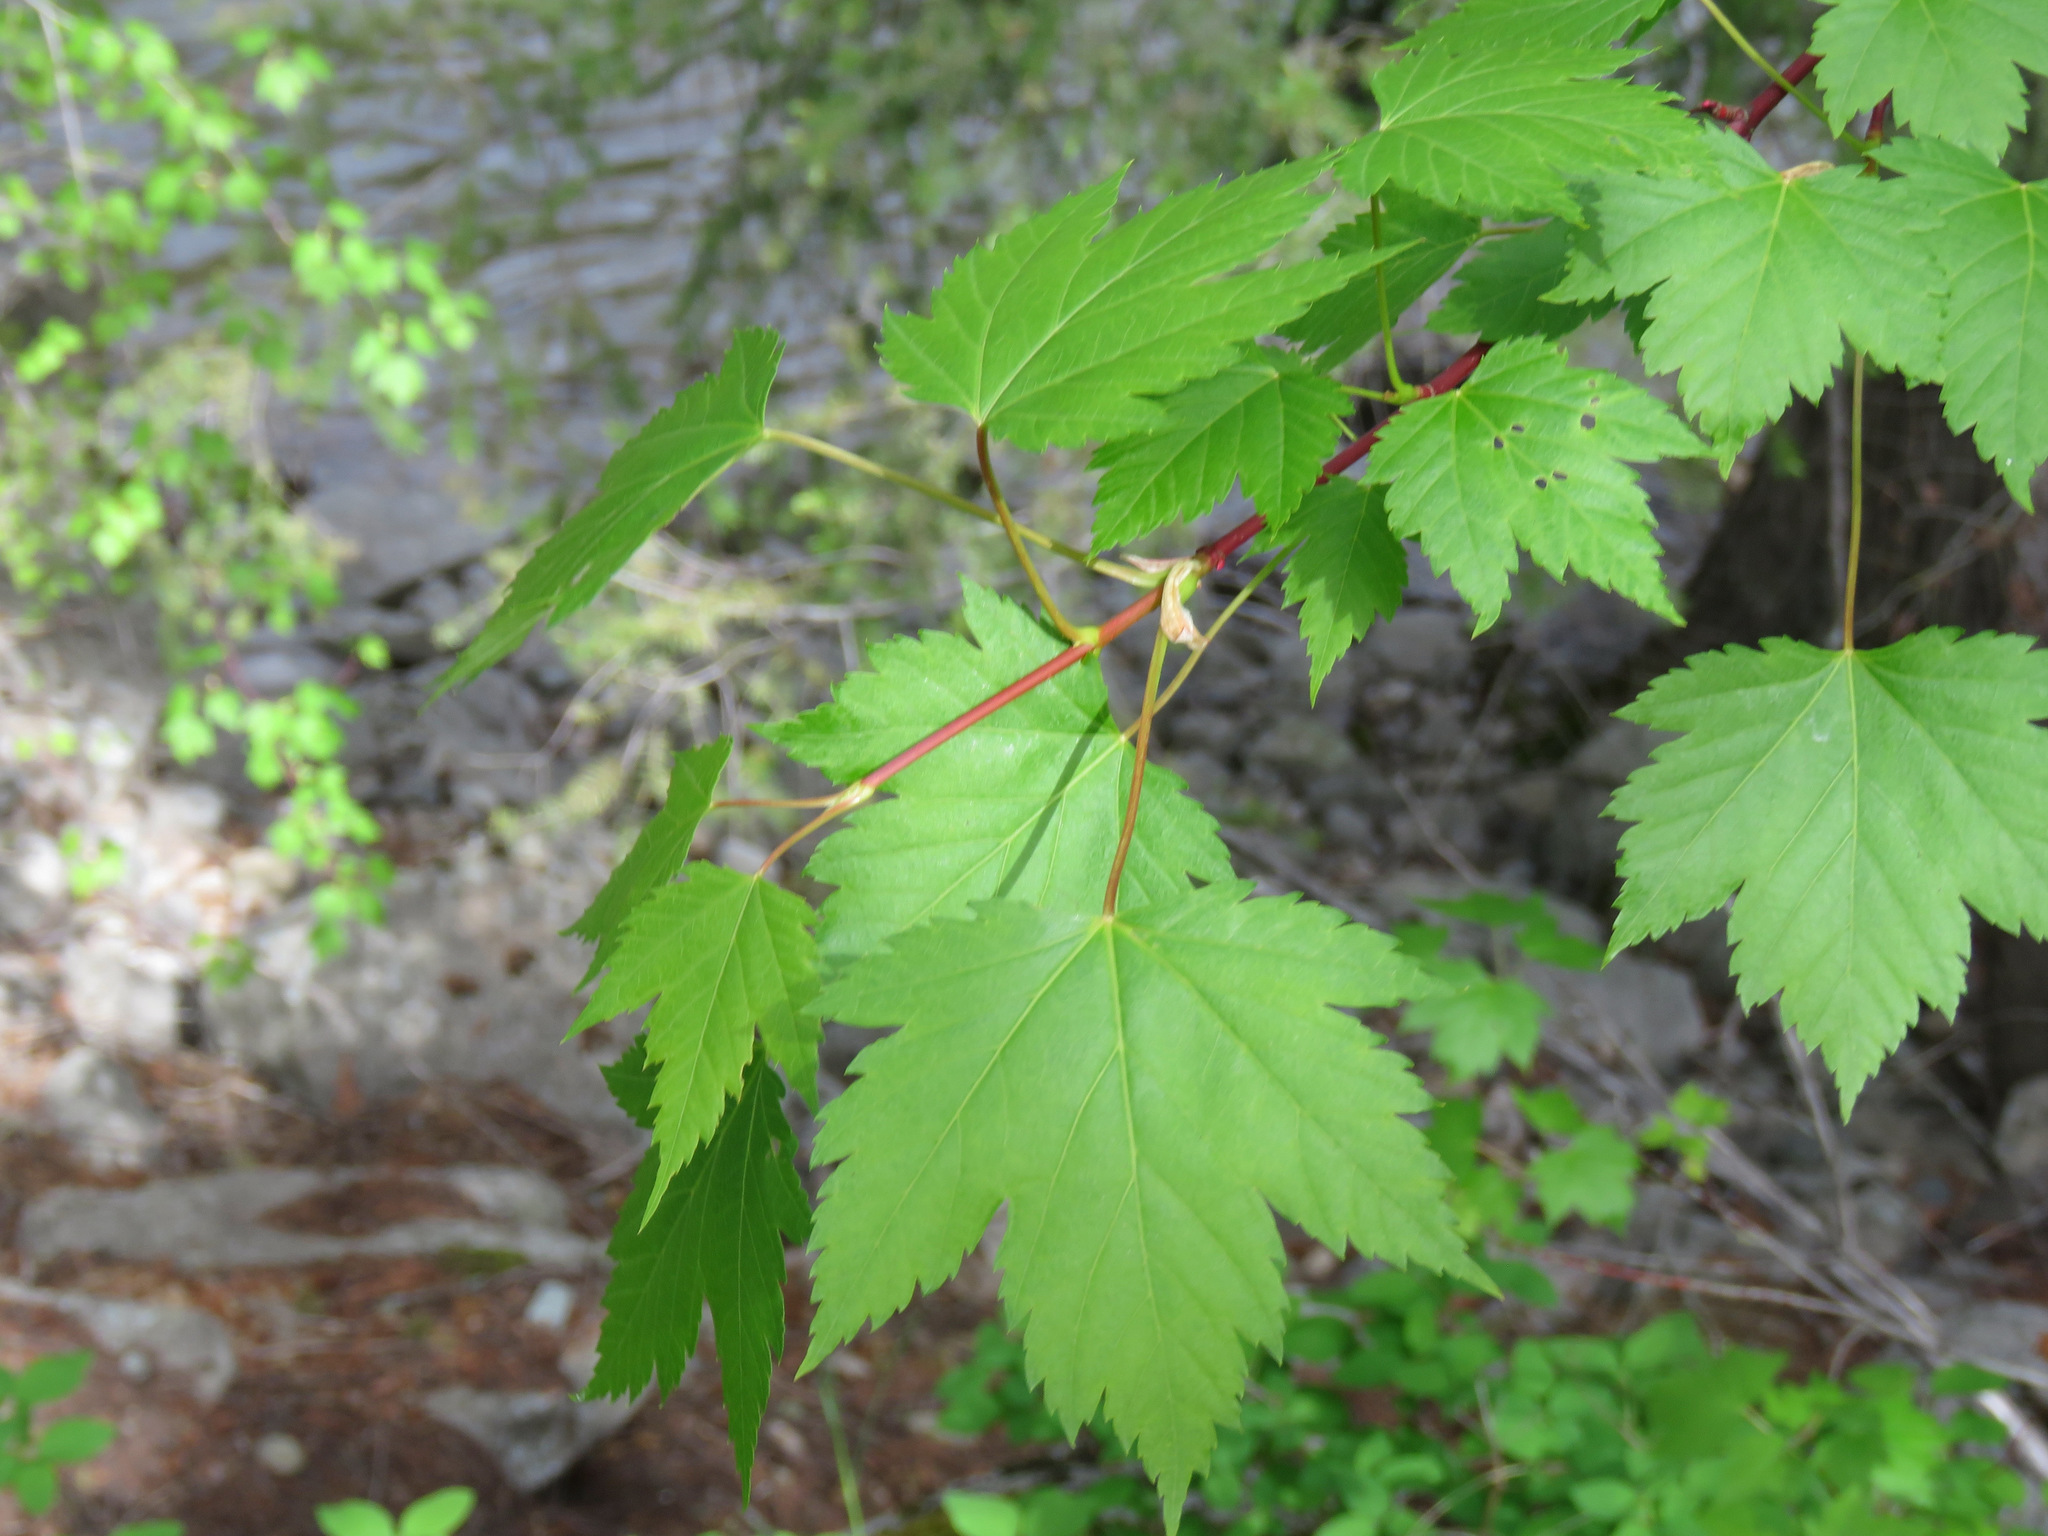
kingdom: Plantae
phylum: Tracheophyta
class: Magnoliopsida
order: Sapindales
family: Sapindaceae
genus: Acer
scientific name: Acer glabrum
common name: Rocky mountain maple
